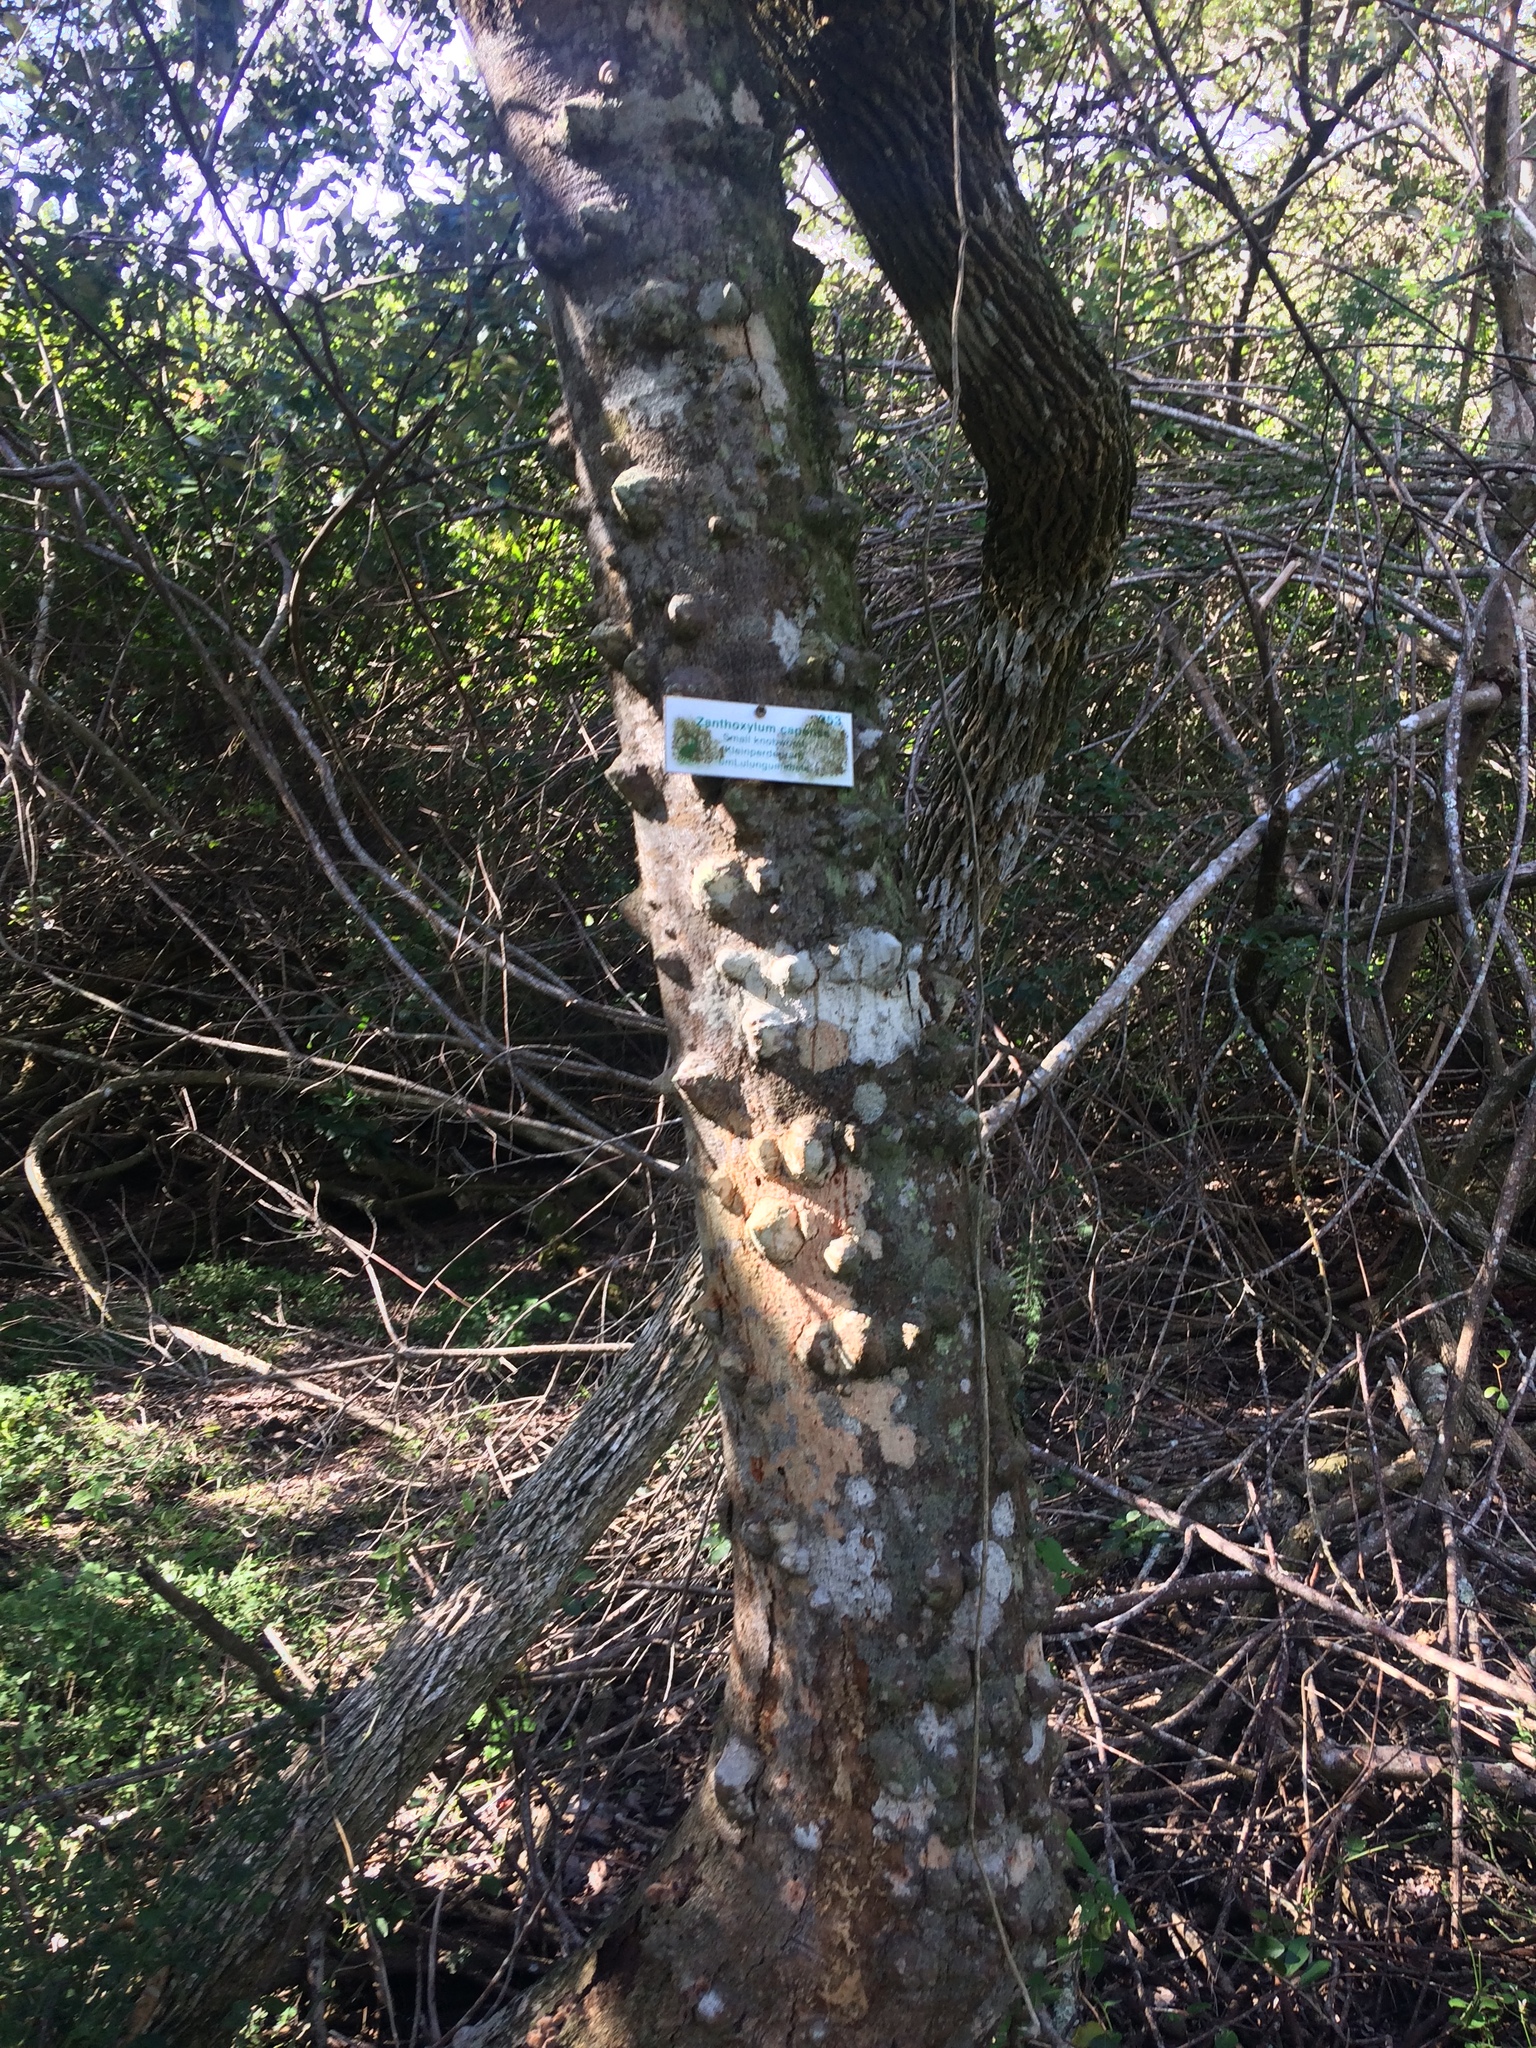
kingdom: Plantae
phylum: Tracheophyta
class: Magnoliopsida
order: Sapindales
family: Rutaceae
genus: Zanthoxylum
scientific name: Zanthoxylum capense
